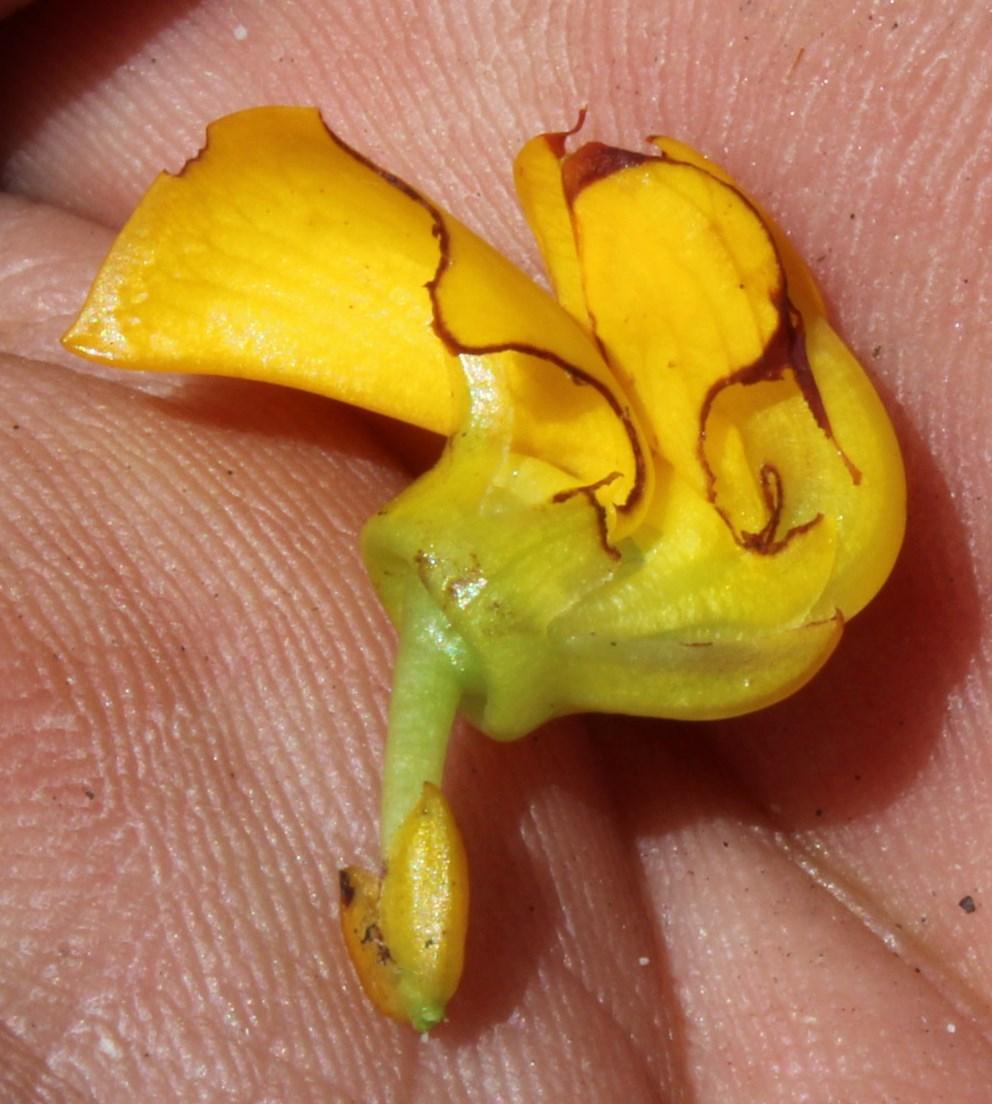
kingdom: Plantae
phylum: Tracheophyta
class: Magnoliopsida
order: Fabales
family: Fabaceae
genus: Cyclopia
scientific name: Cyclopia genistoides
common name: Honeybush tea
